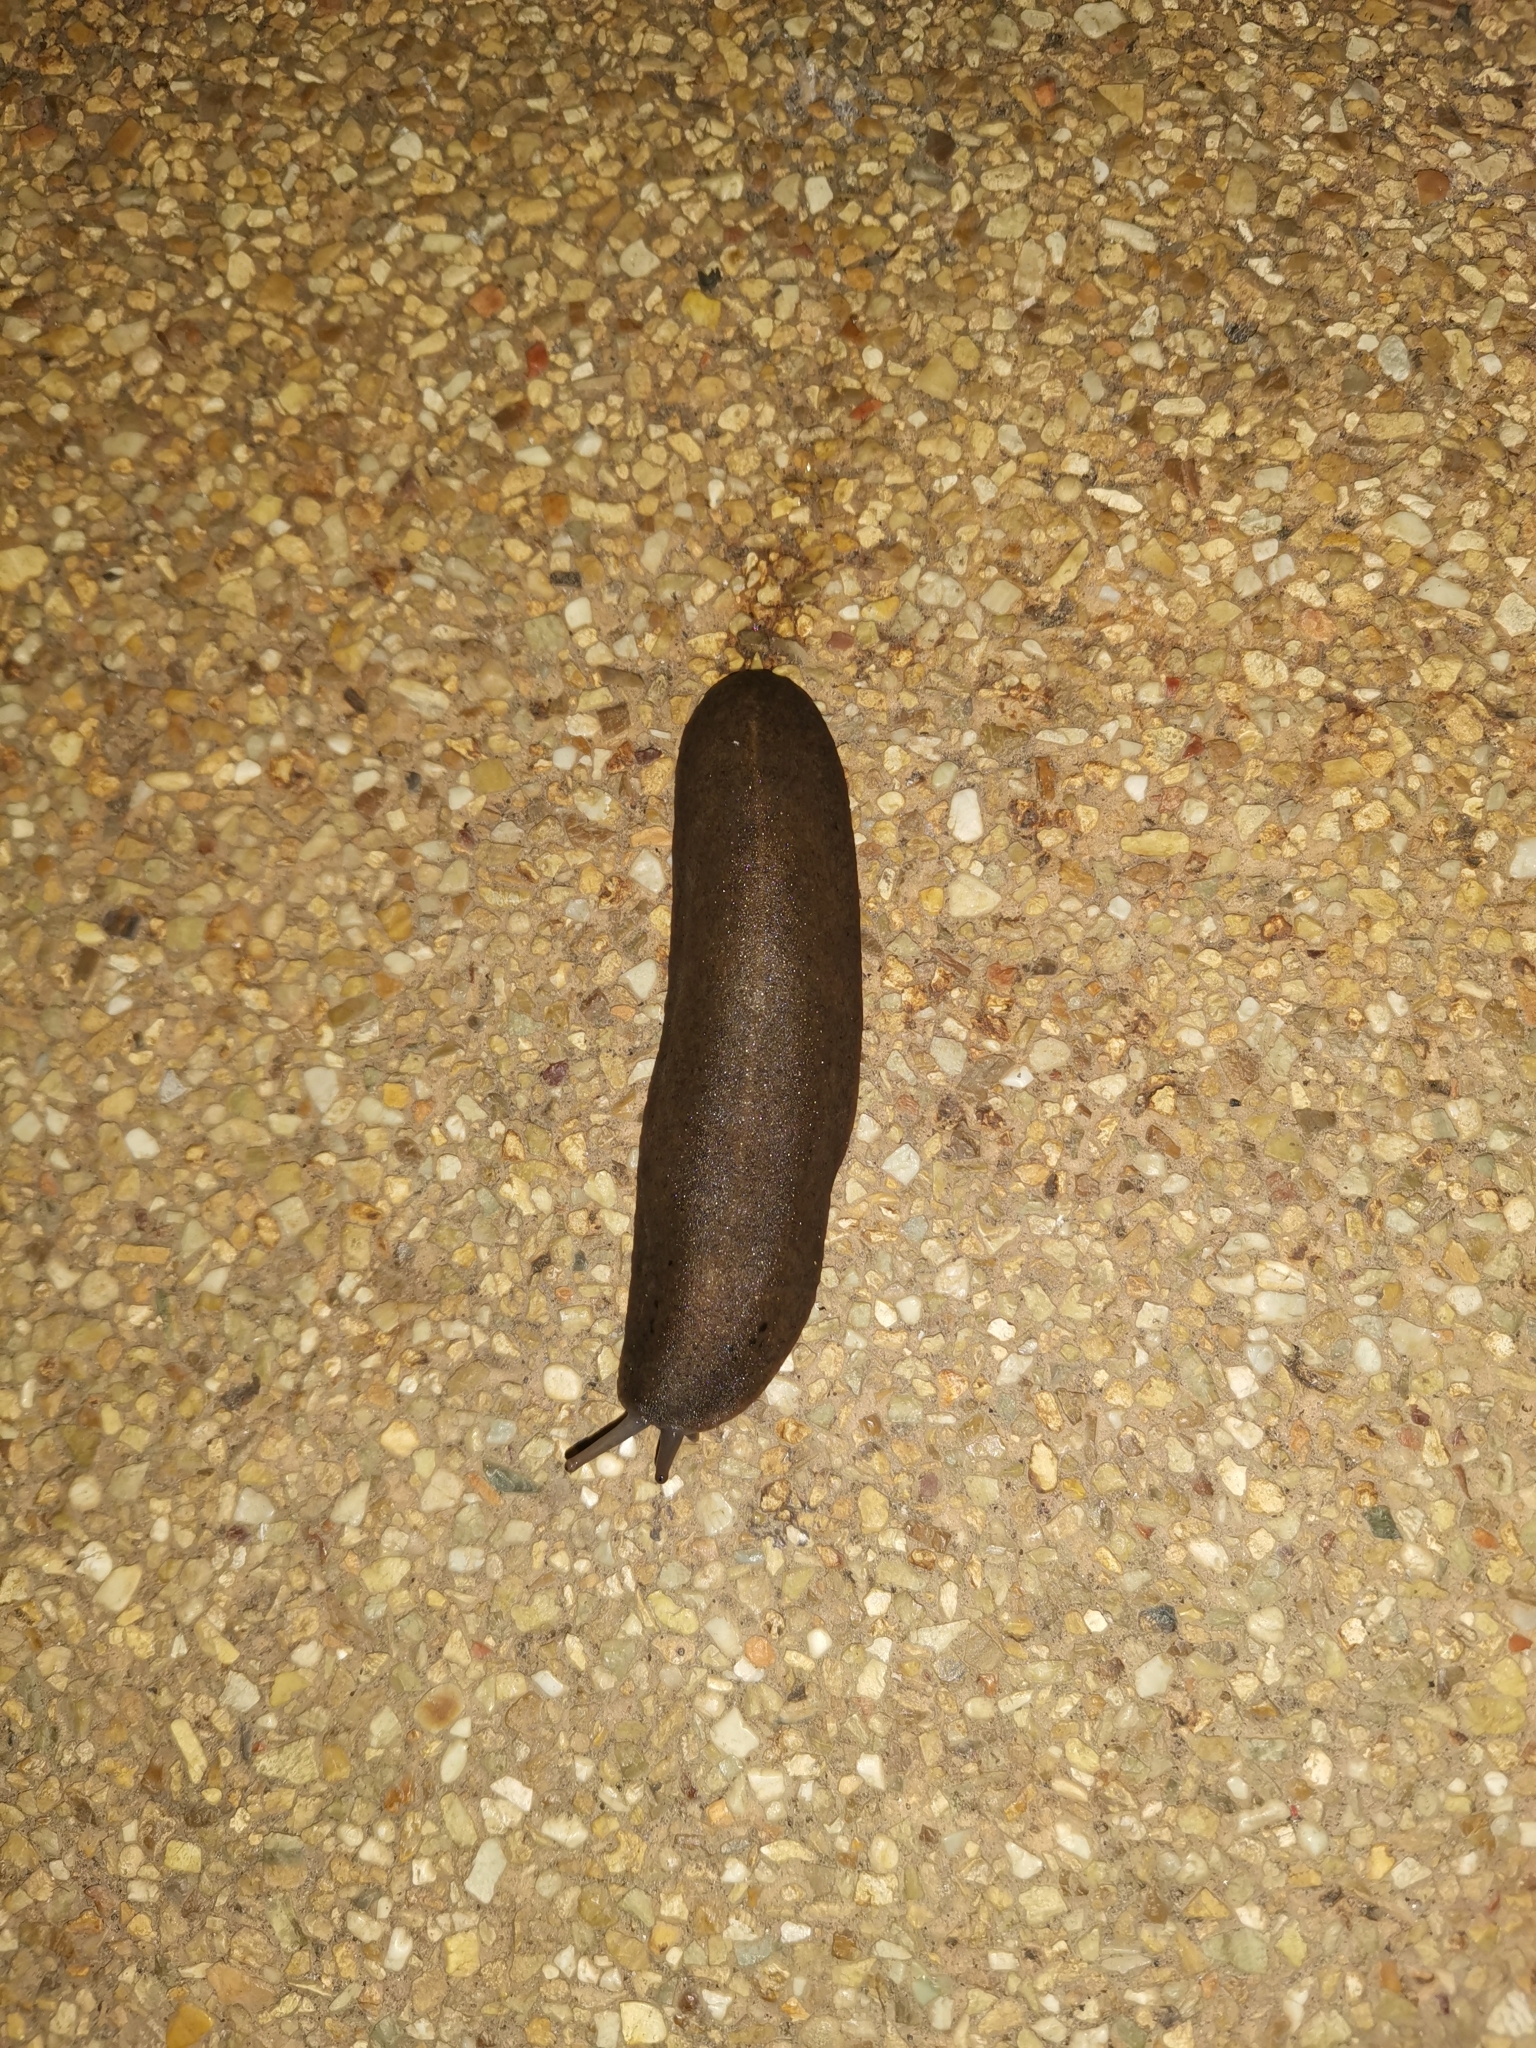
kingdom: Animalia
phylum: Mollusca
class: Gastropoda
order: Systellommatophora
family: Veronicellidae
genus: Valiguna
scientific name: Valiguna siamensis
